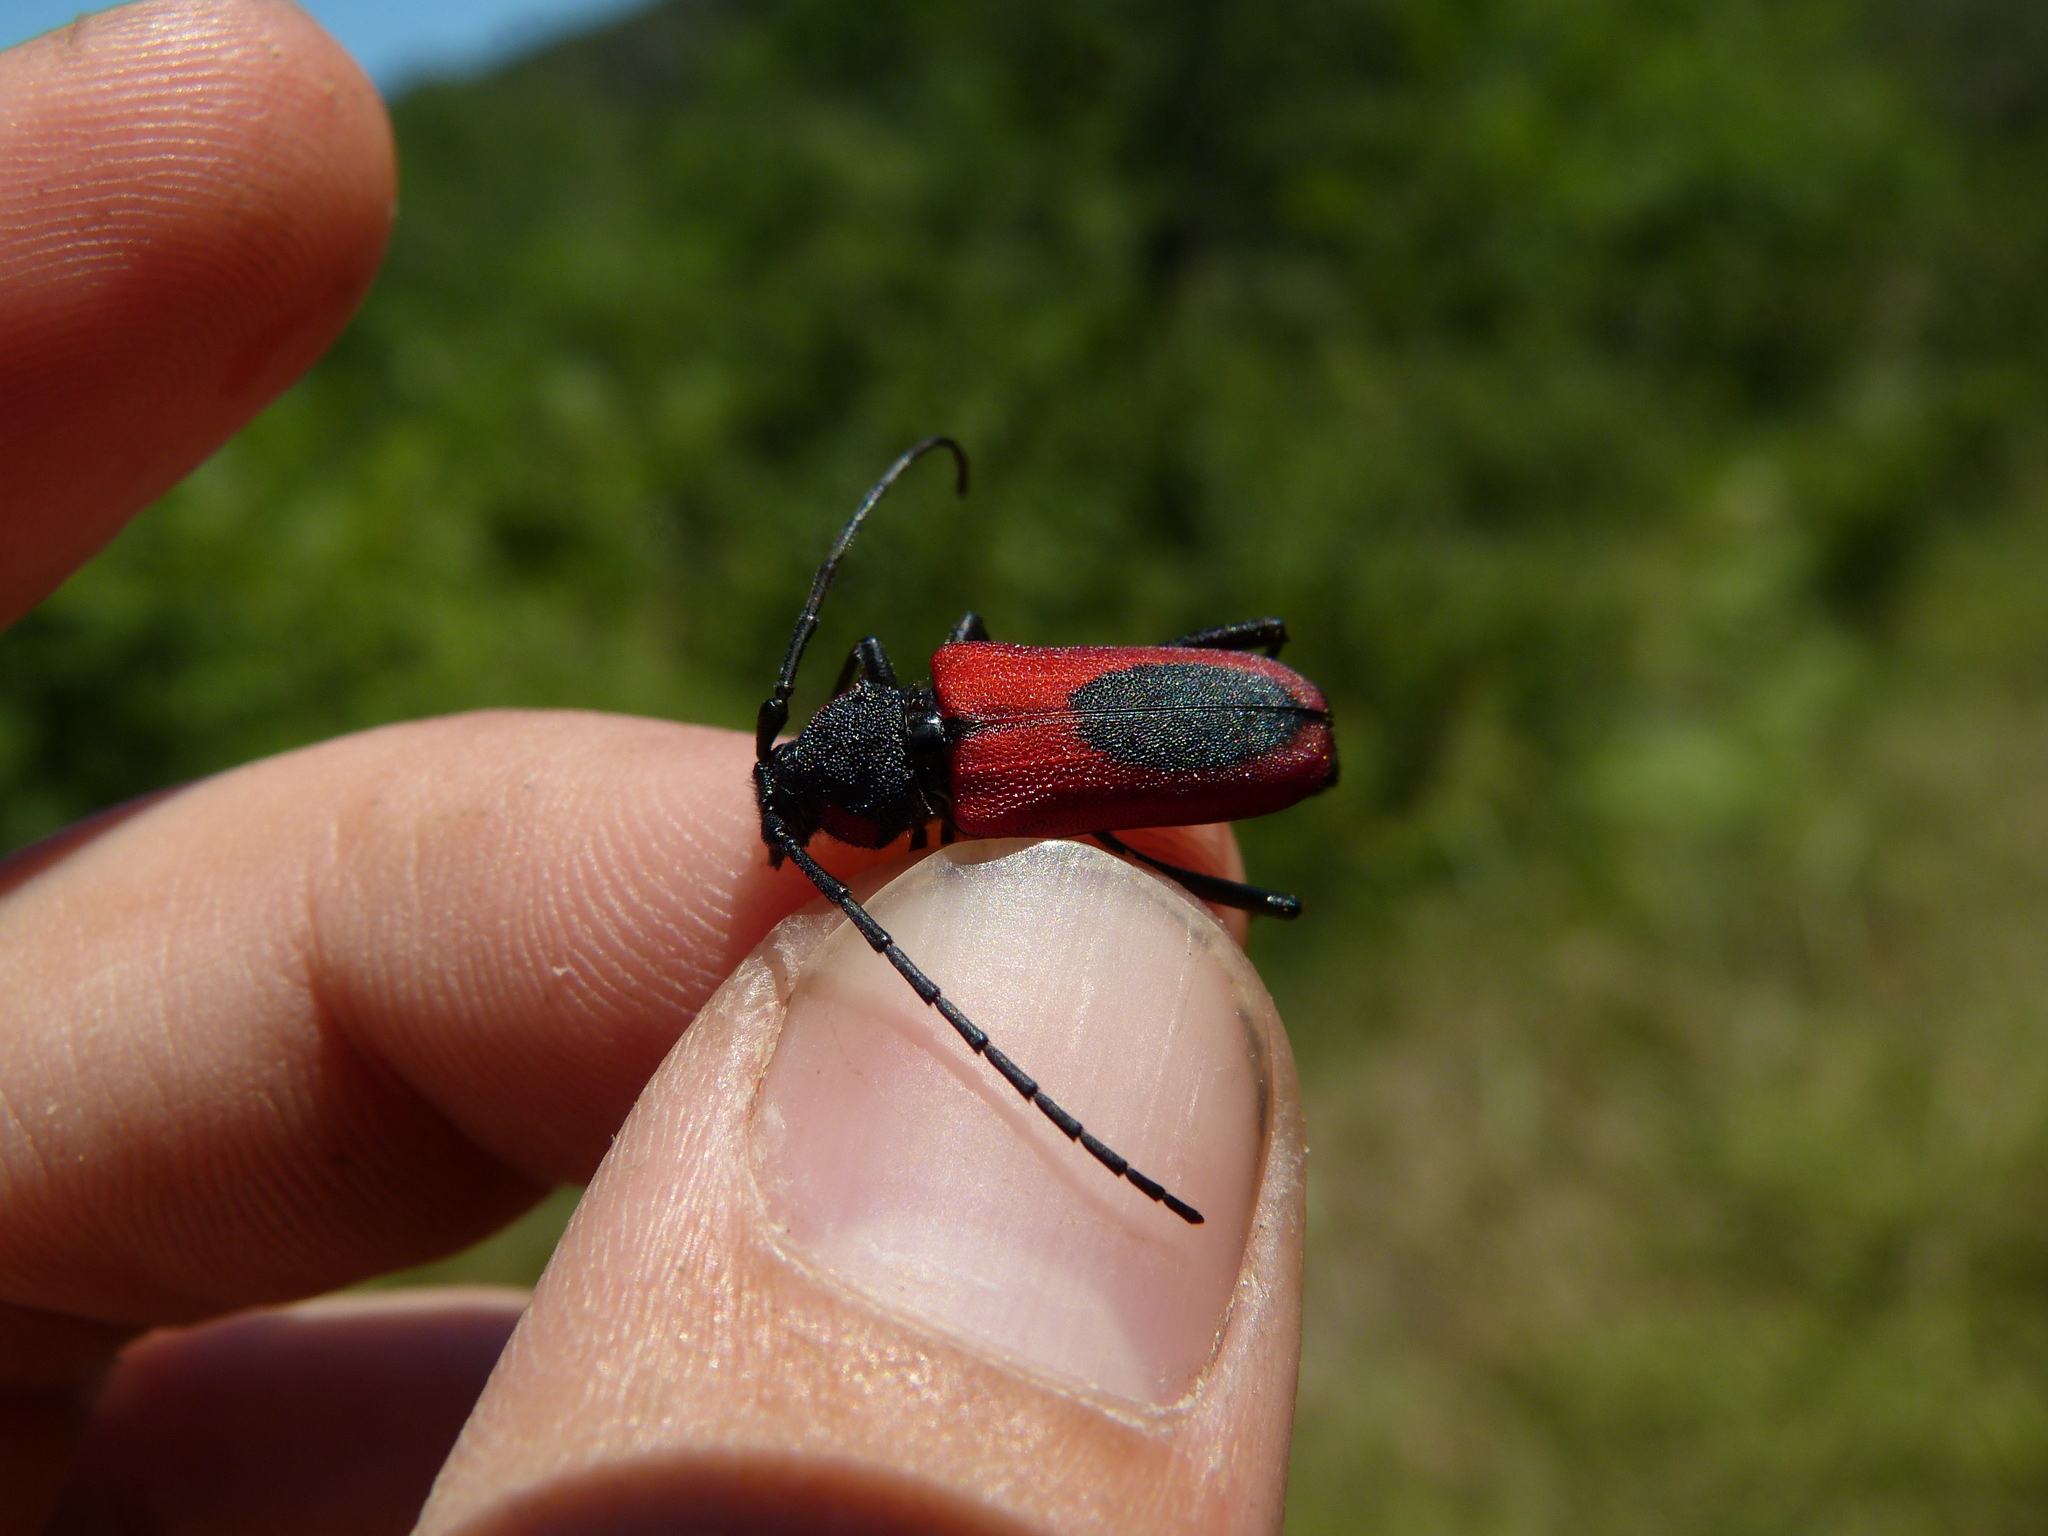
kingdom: Animalia
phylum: Arthropoda
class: Insecta
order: Coleoptera
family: Cerambycidae
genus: Purpuricenus
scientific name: Purpuricenus kaehleri
